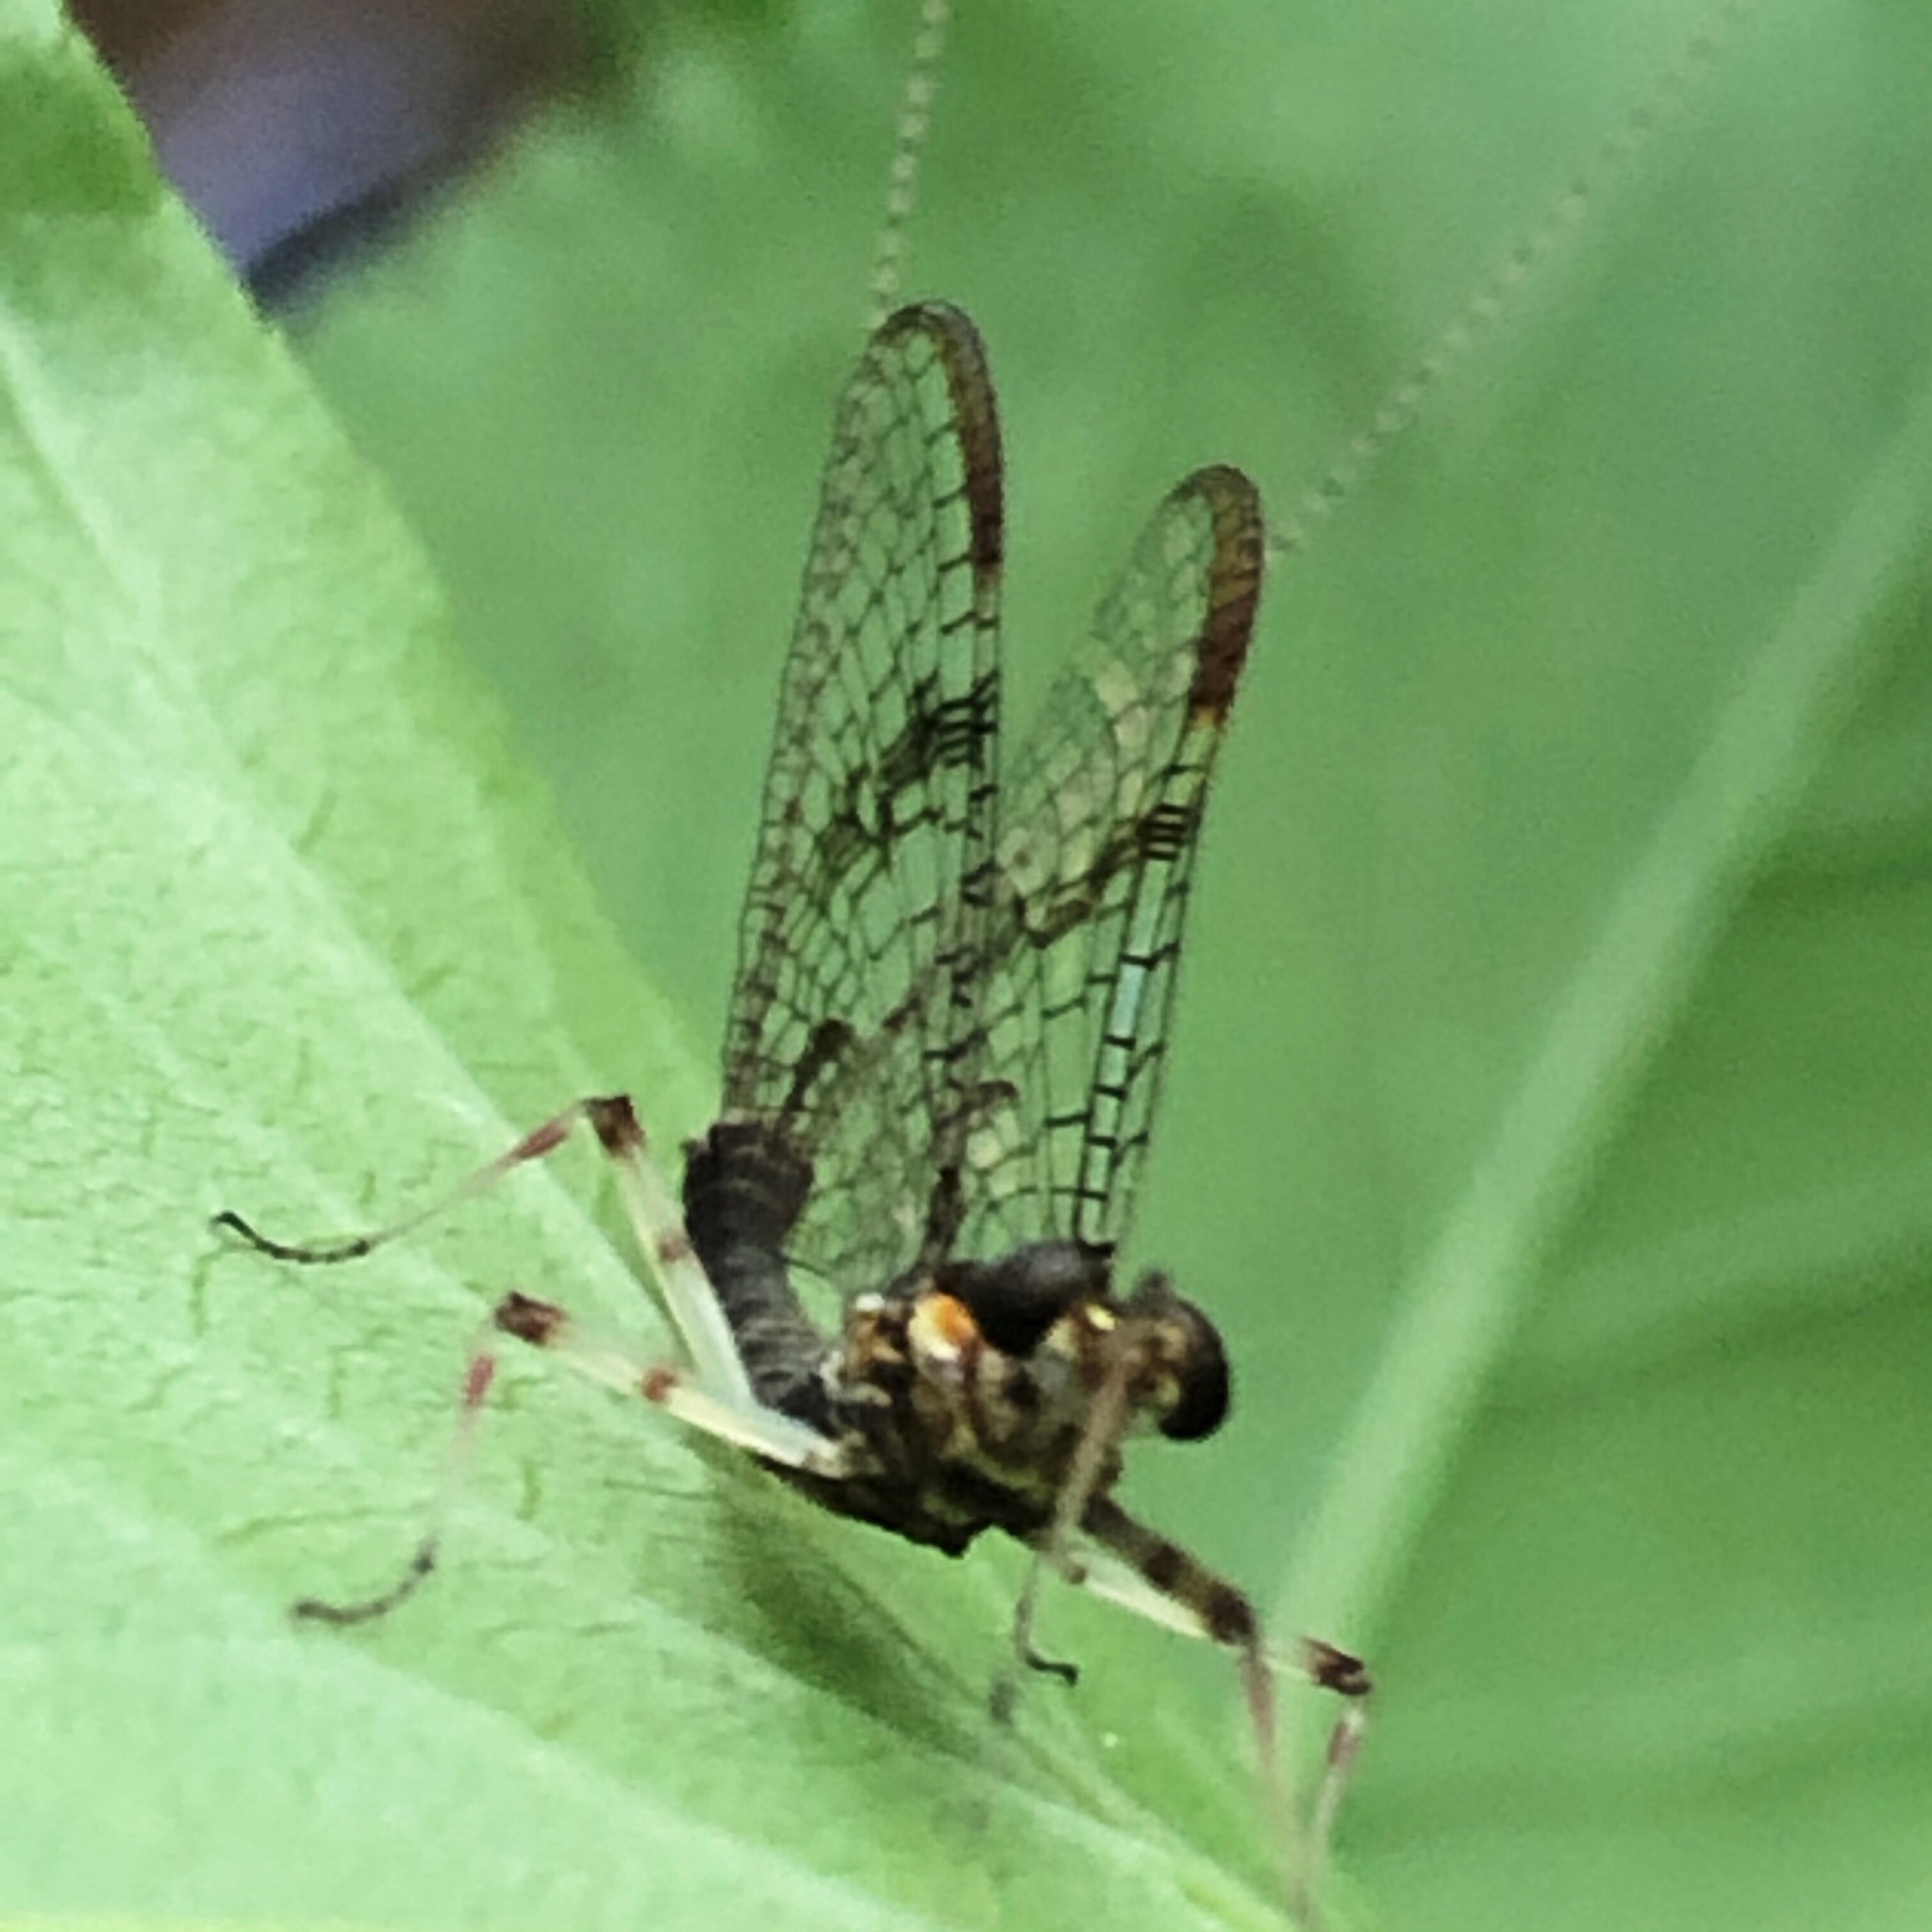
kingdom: Animalia
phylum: Arthropoda
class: Insecta
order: Ephemeroptera
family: Heptageniidae
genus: Stenonema
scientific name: Stenonema femoratum
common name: Dark cahill
